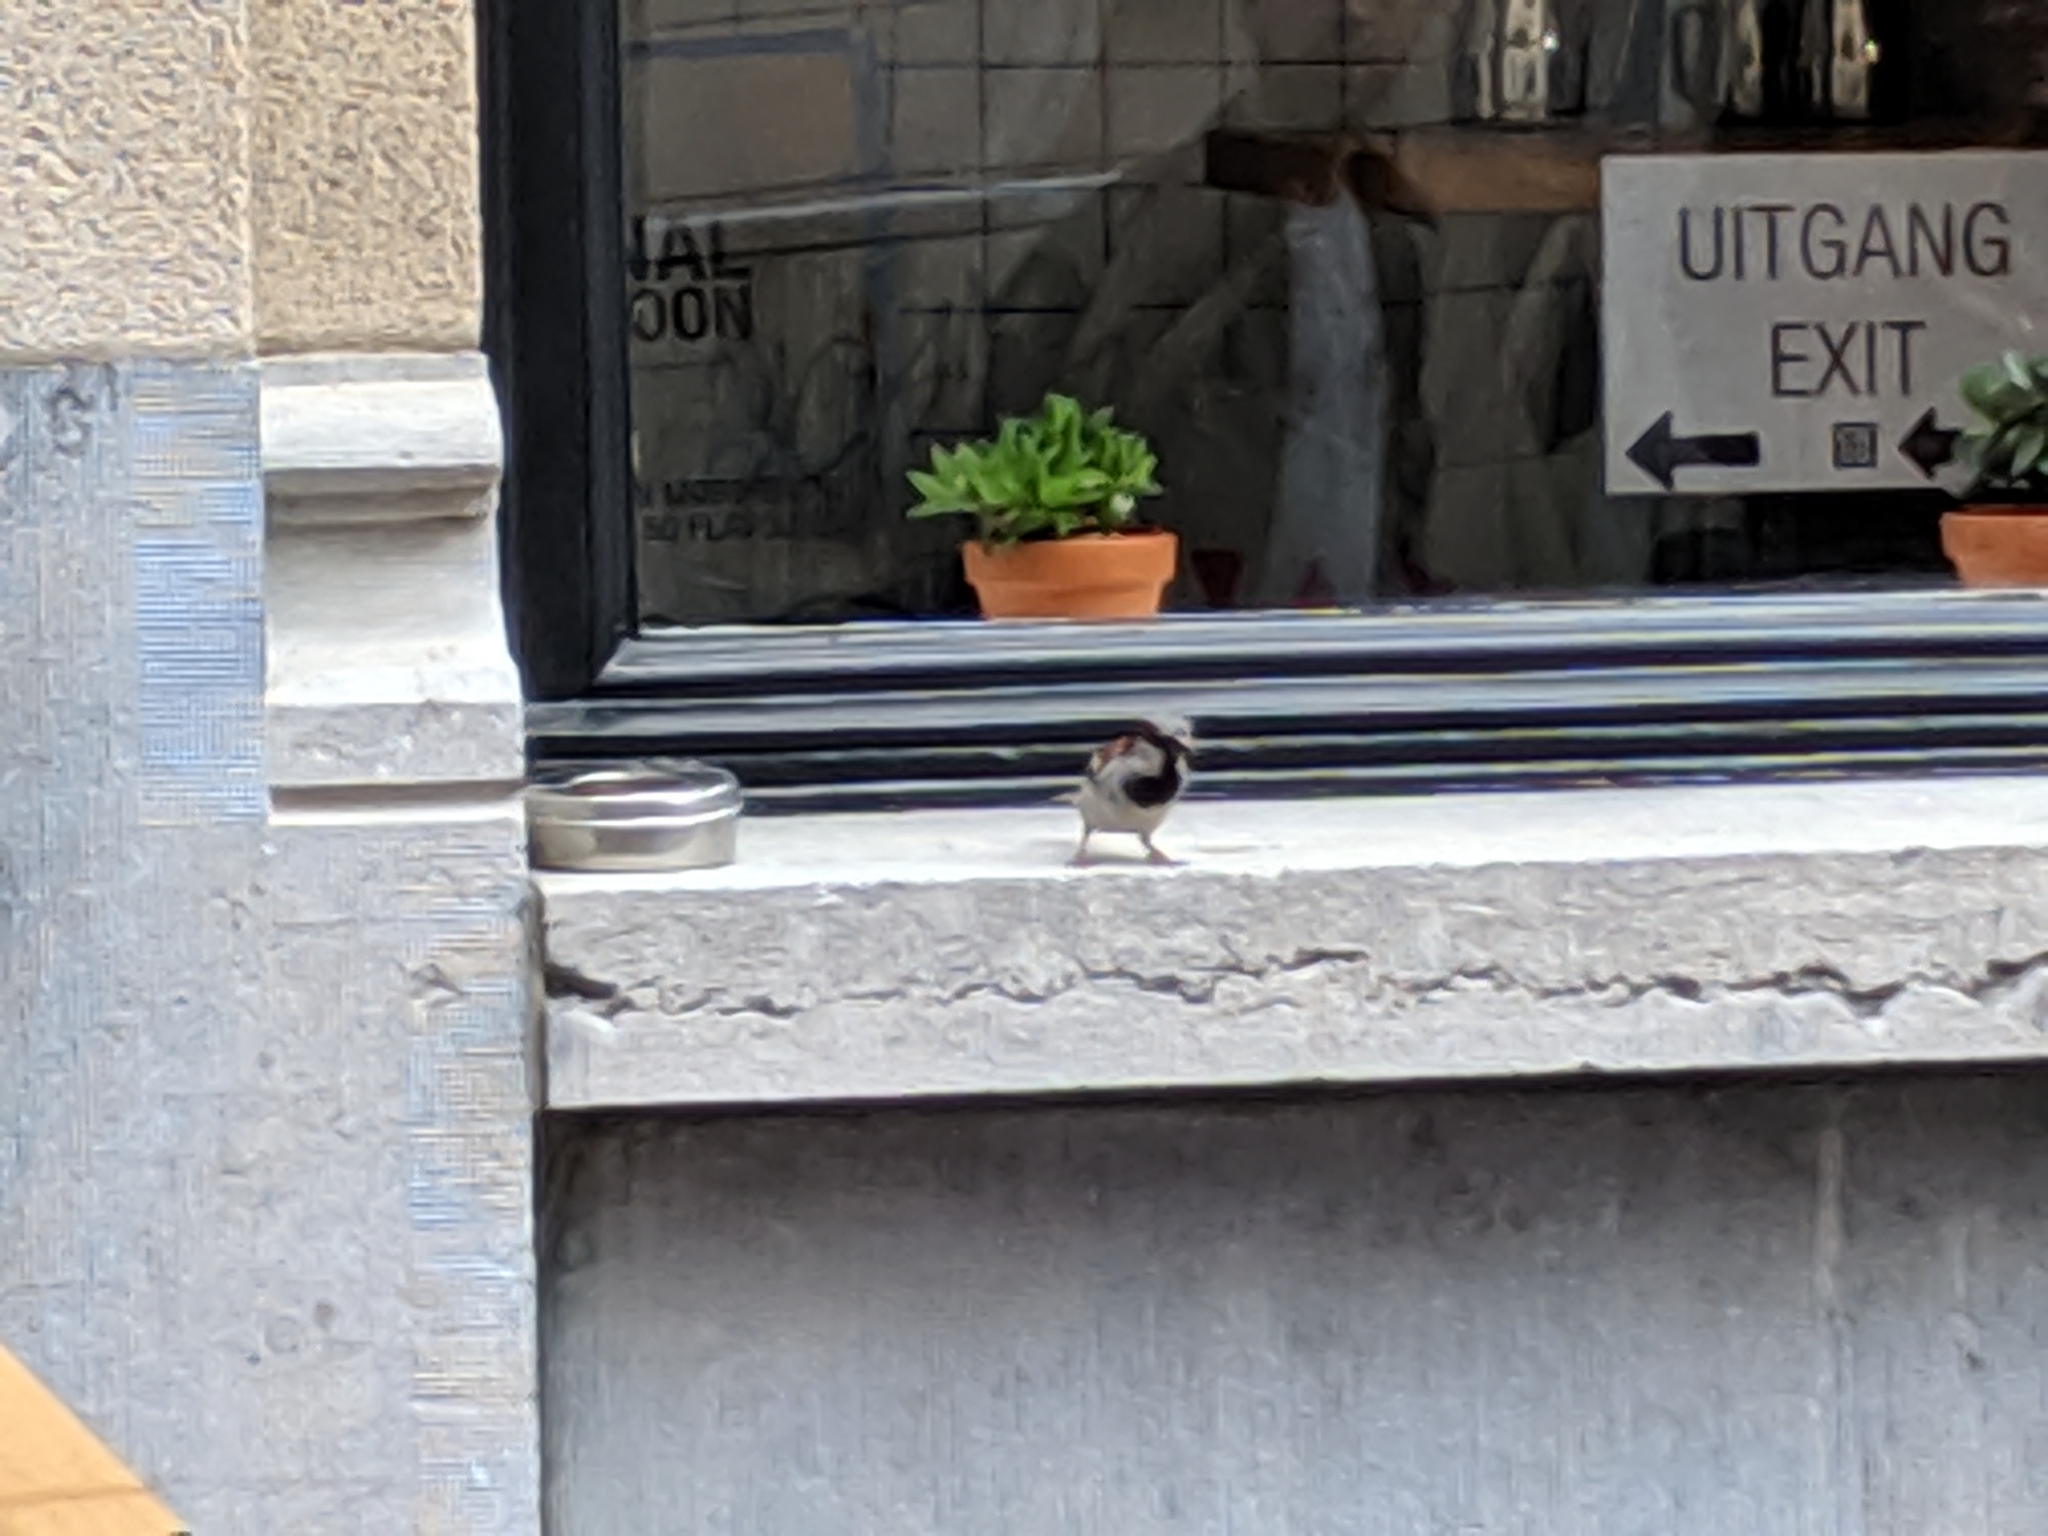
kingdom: Animalia
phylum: Chordata
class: Aves
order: Passeriformes
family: Passeridae
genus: Passer
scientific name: Passer domesticus
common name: House sparrow
